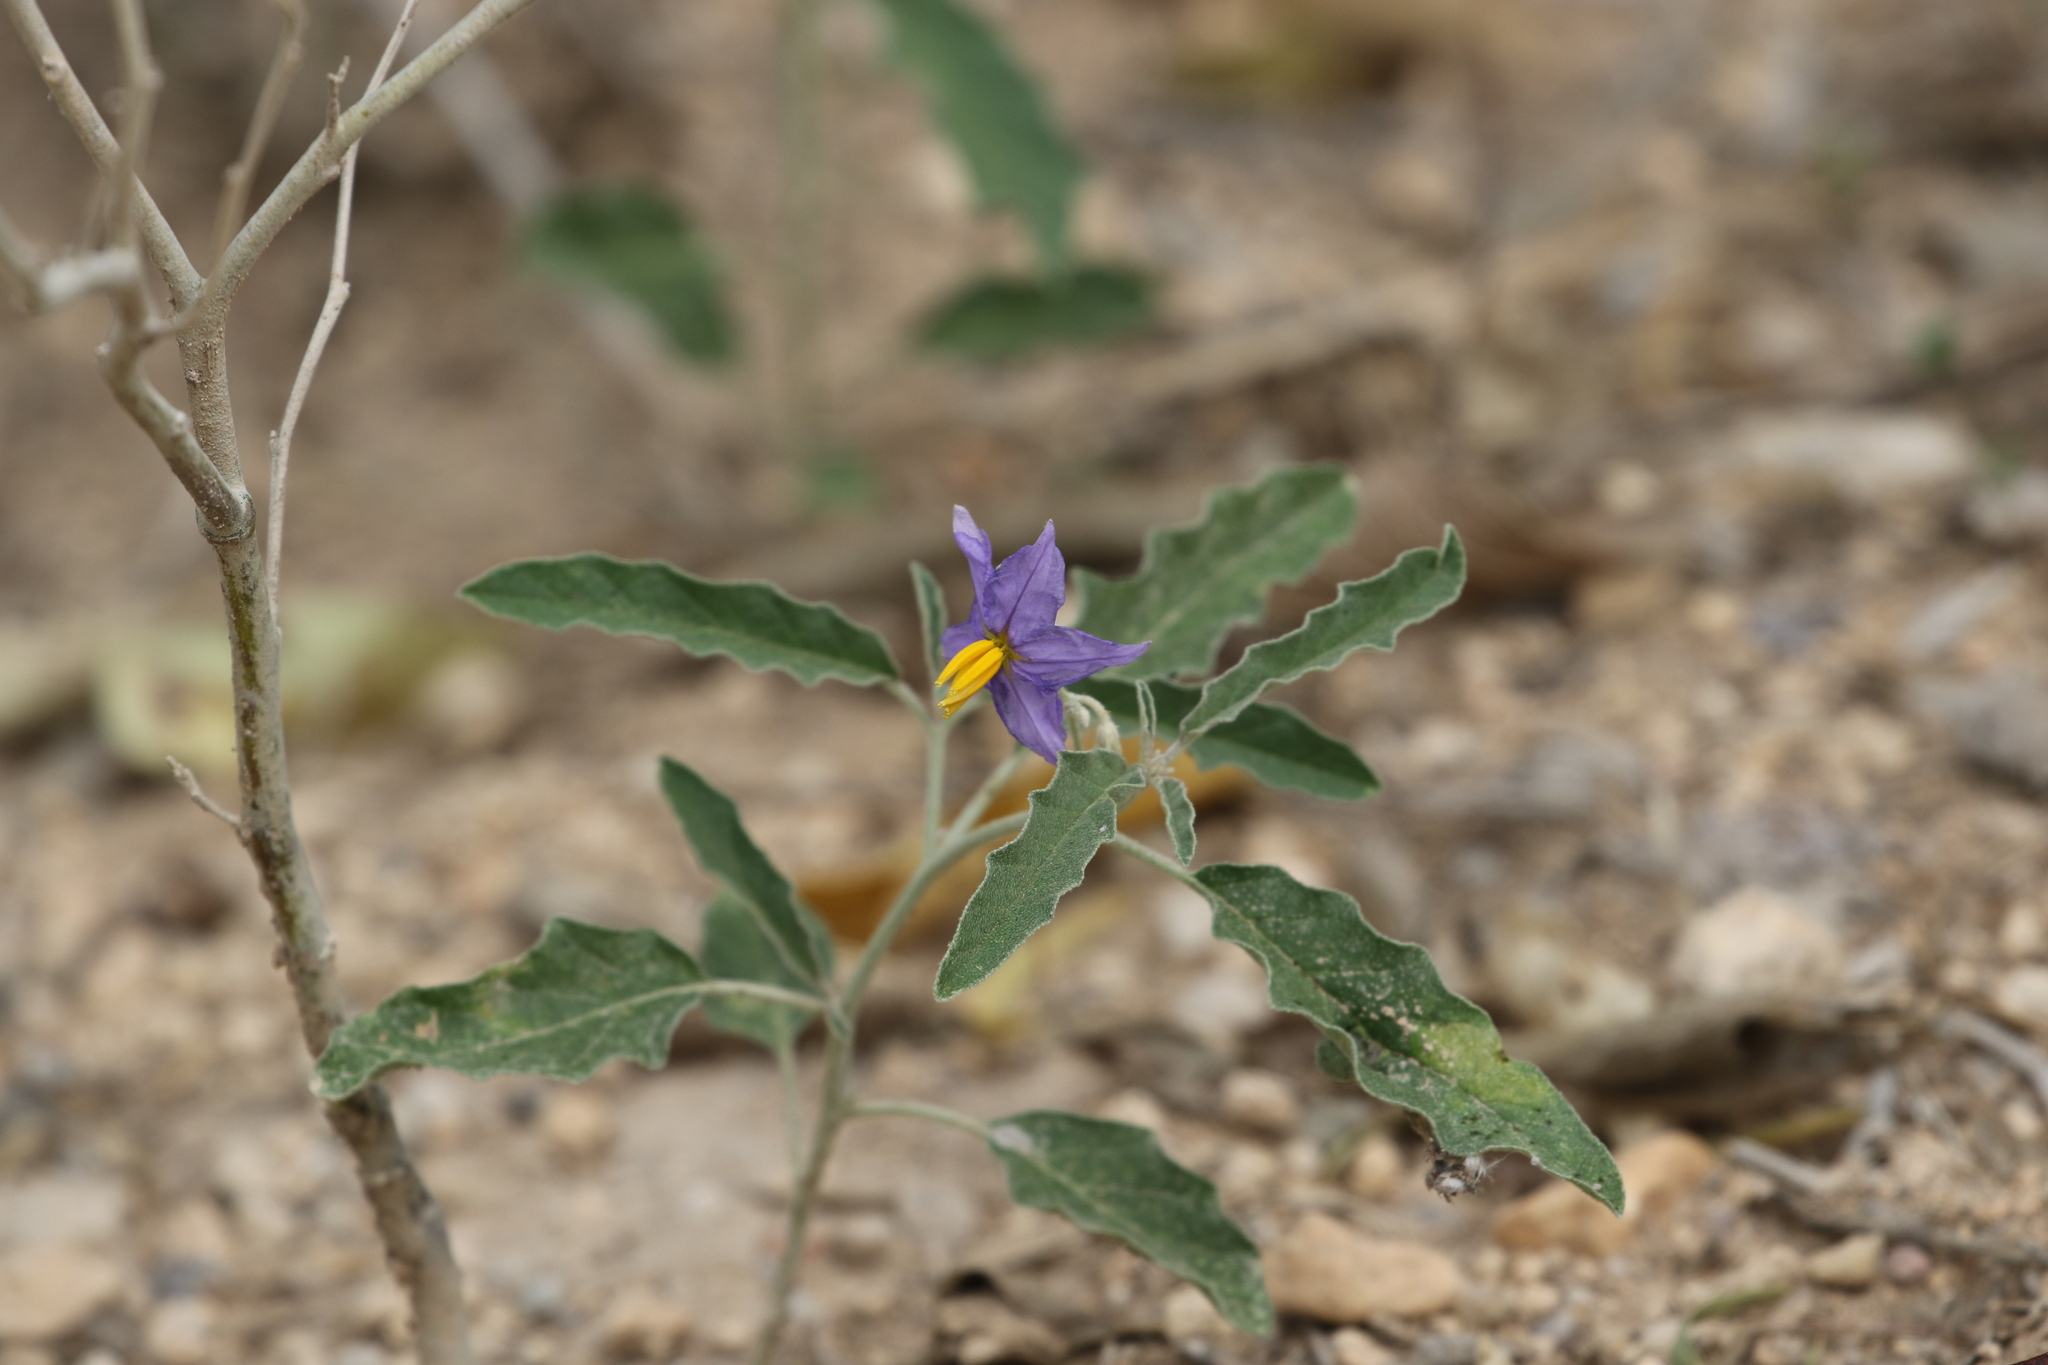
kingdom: Plantae
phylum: Tracheophyta
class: Magnoliopsida
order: Solanales
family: Solanaceae
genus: Solanum
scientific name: Solanum elaeagnifolium
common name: Silverleaf nightshade
